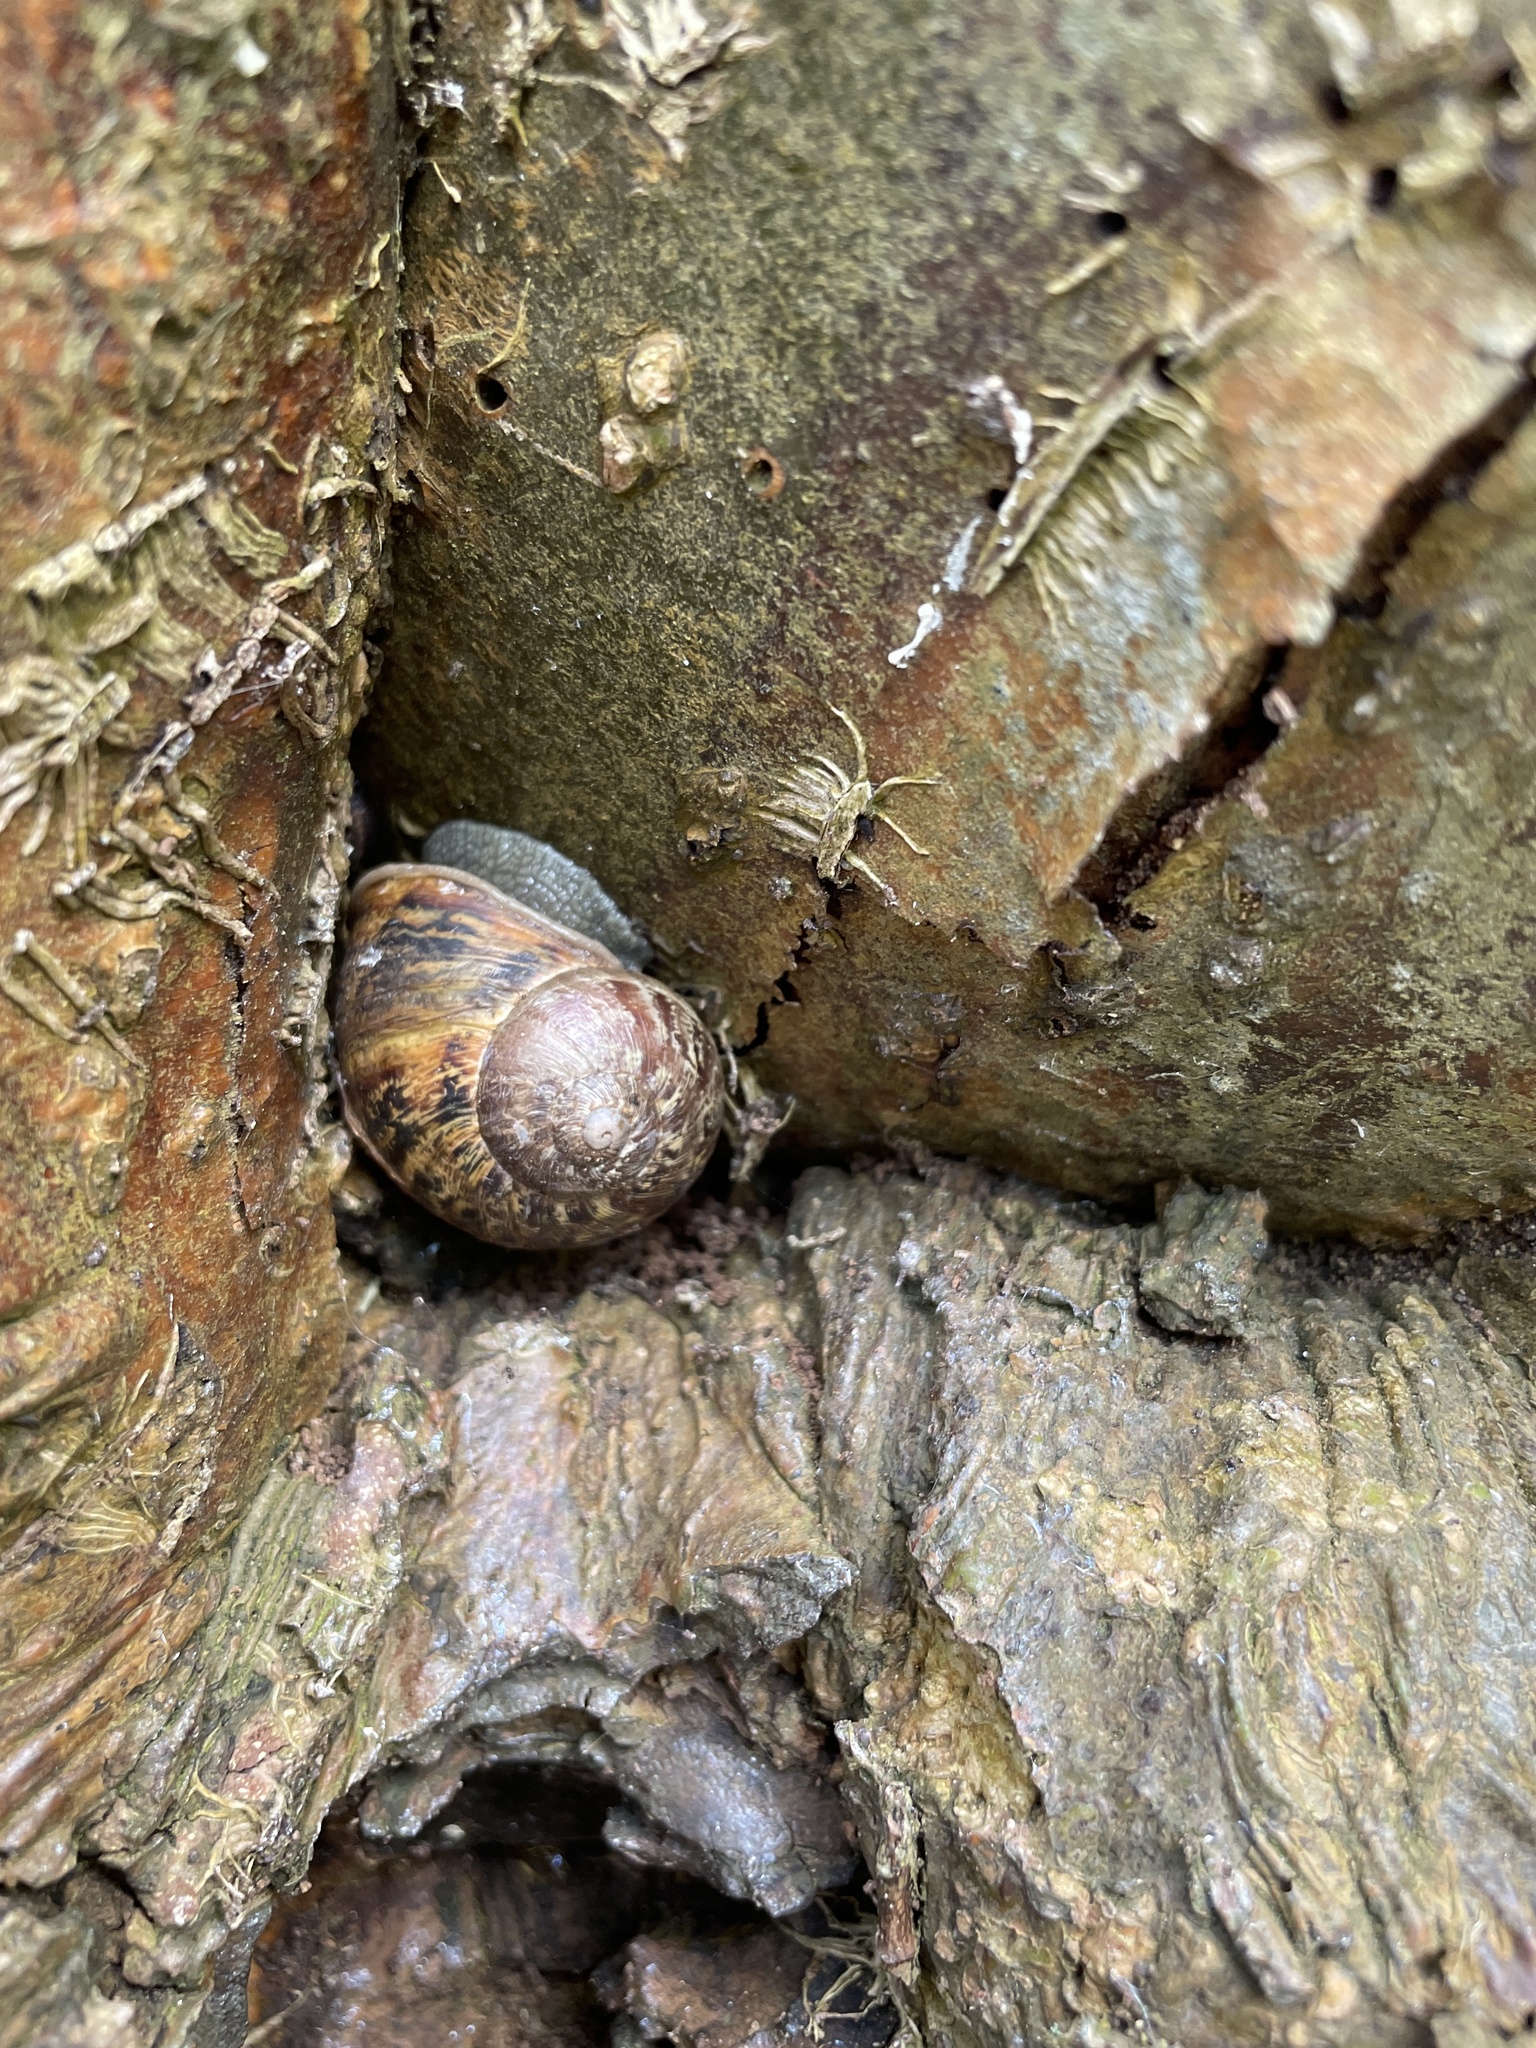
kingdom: Animalia
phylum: Mollusca
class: Gastropoda
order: Stylommatophora
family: Helicidae
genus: Cornu
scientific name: Cornu aspersum
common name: Brown garden snail
